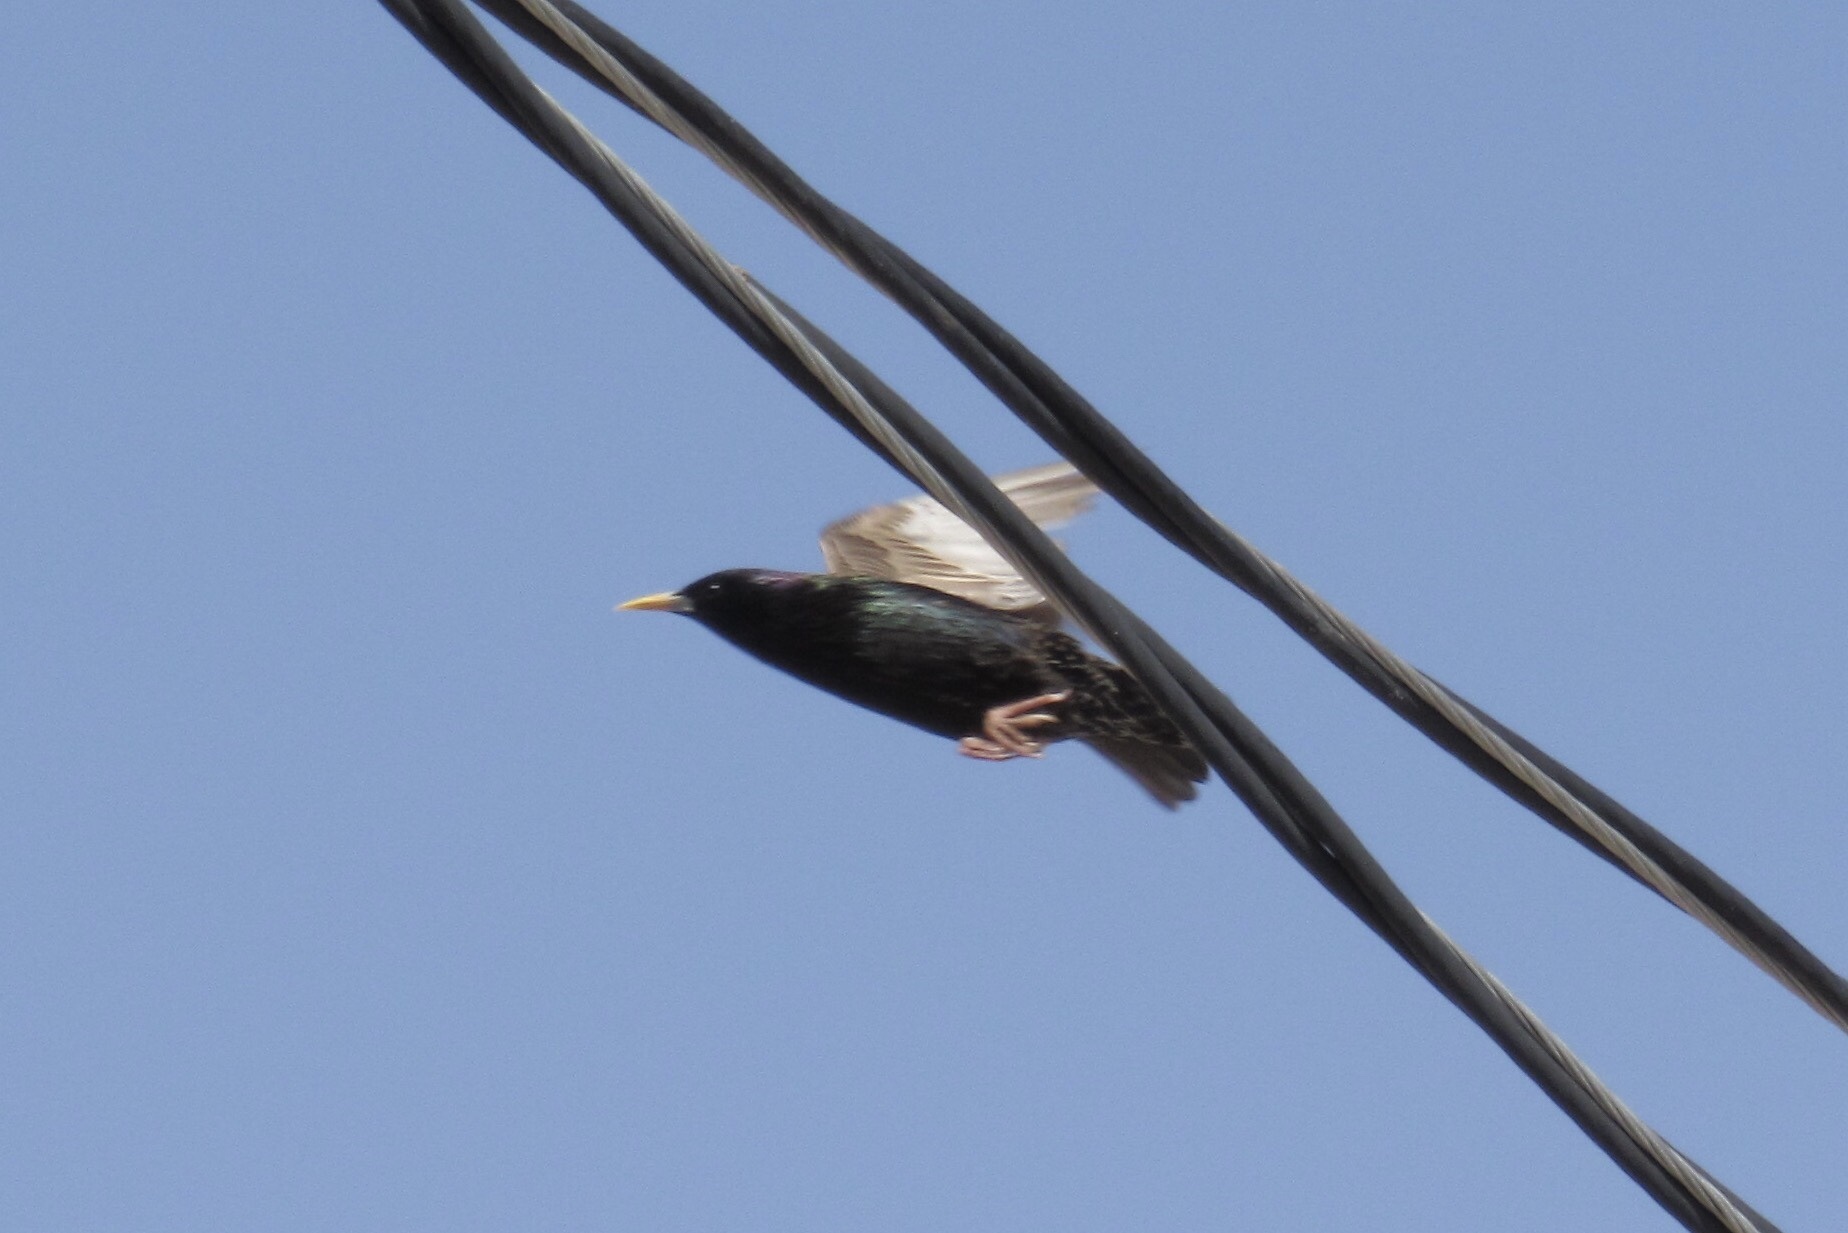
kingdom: Animalia
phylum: Chordata
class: Aves
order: Passeriformes
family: Sturnidae
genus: Sturnus
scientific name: Sturnus vulgaris
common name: Common starling
